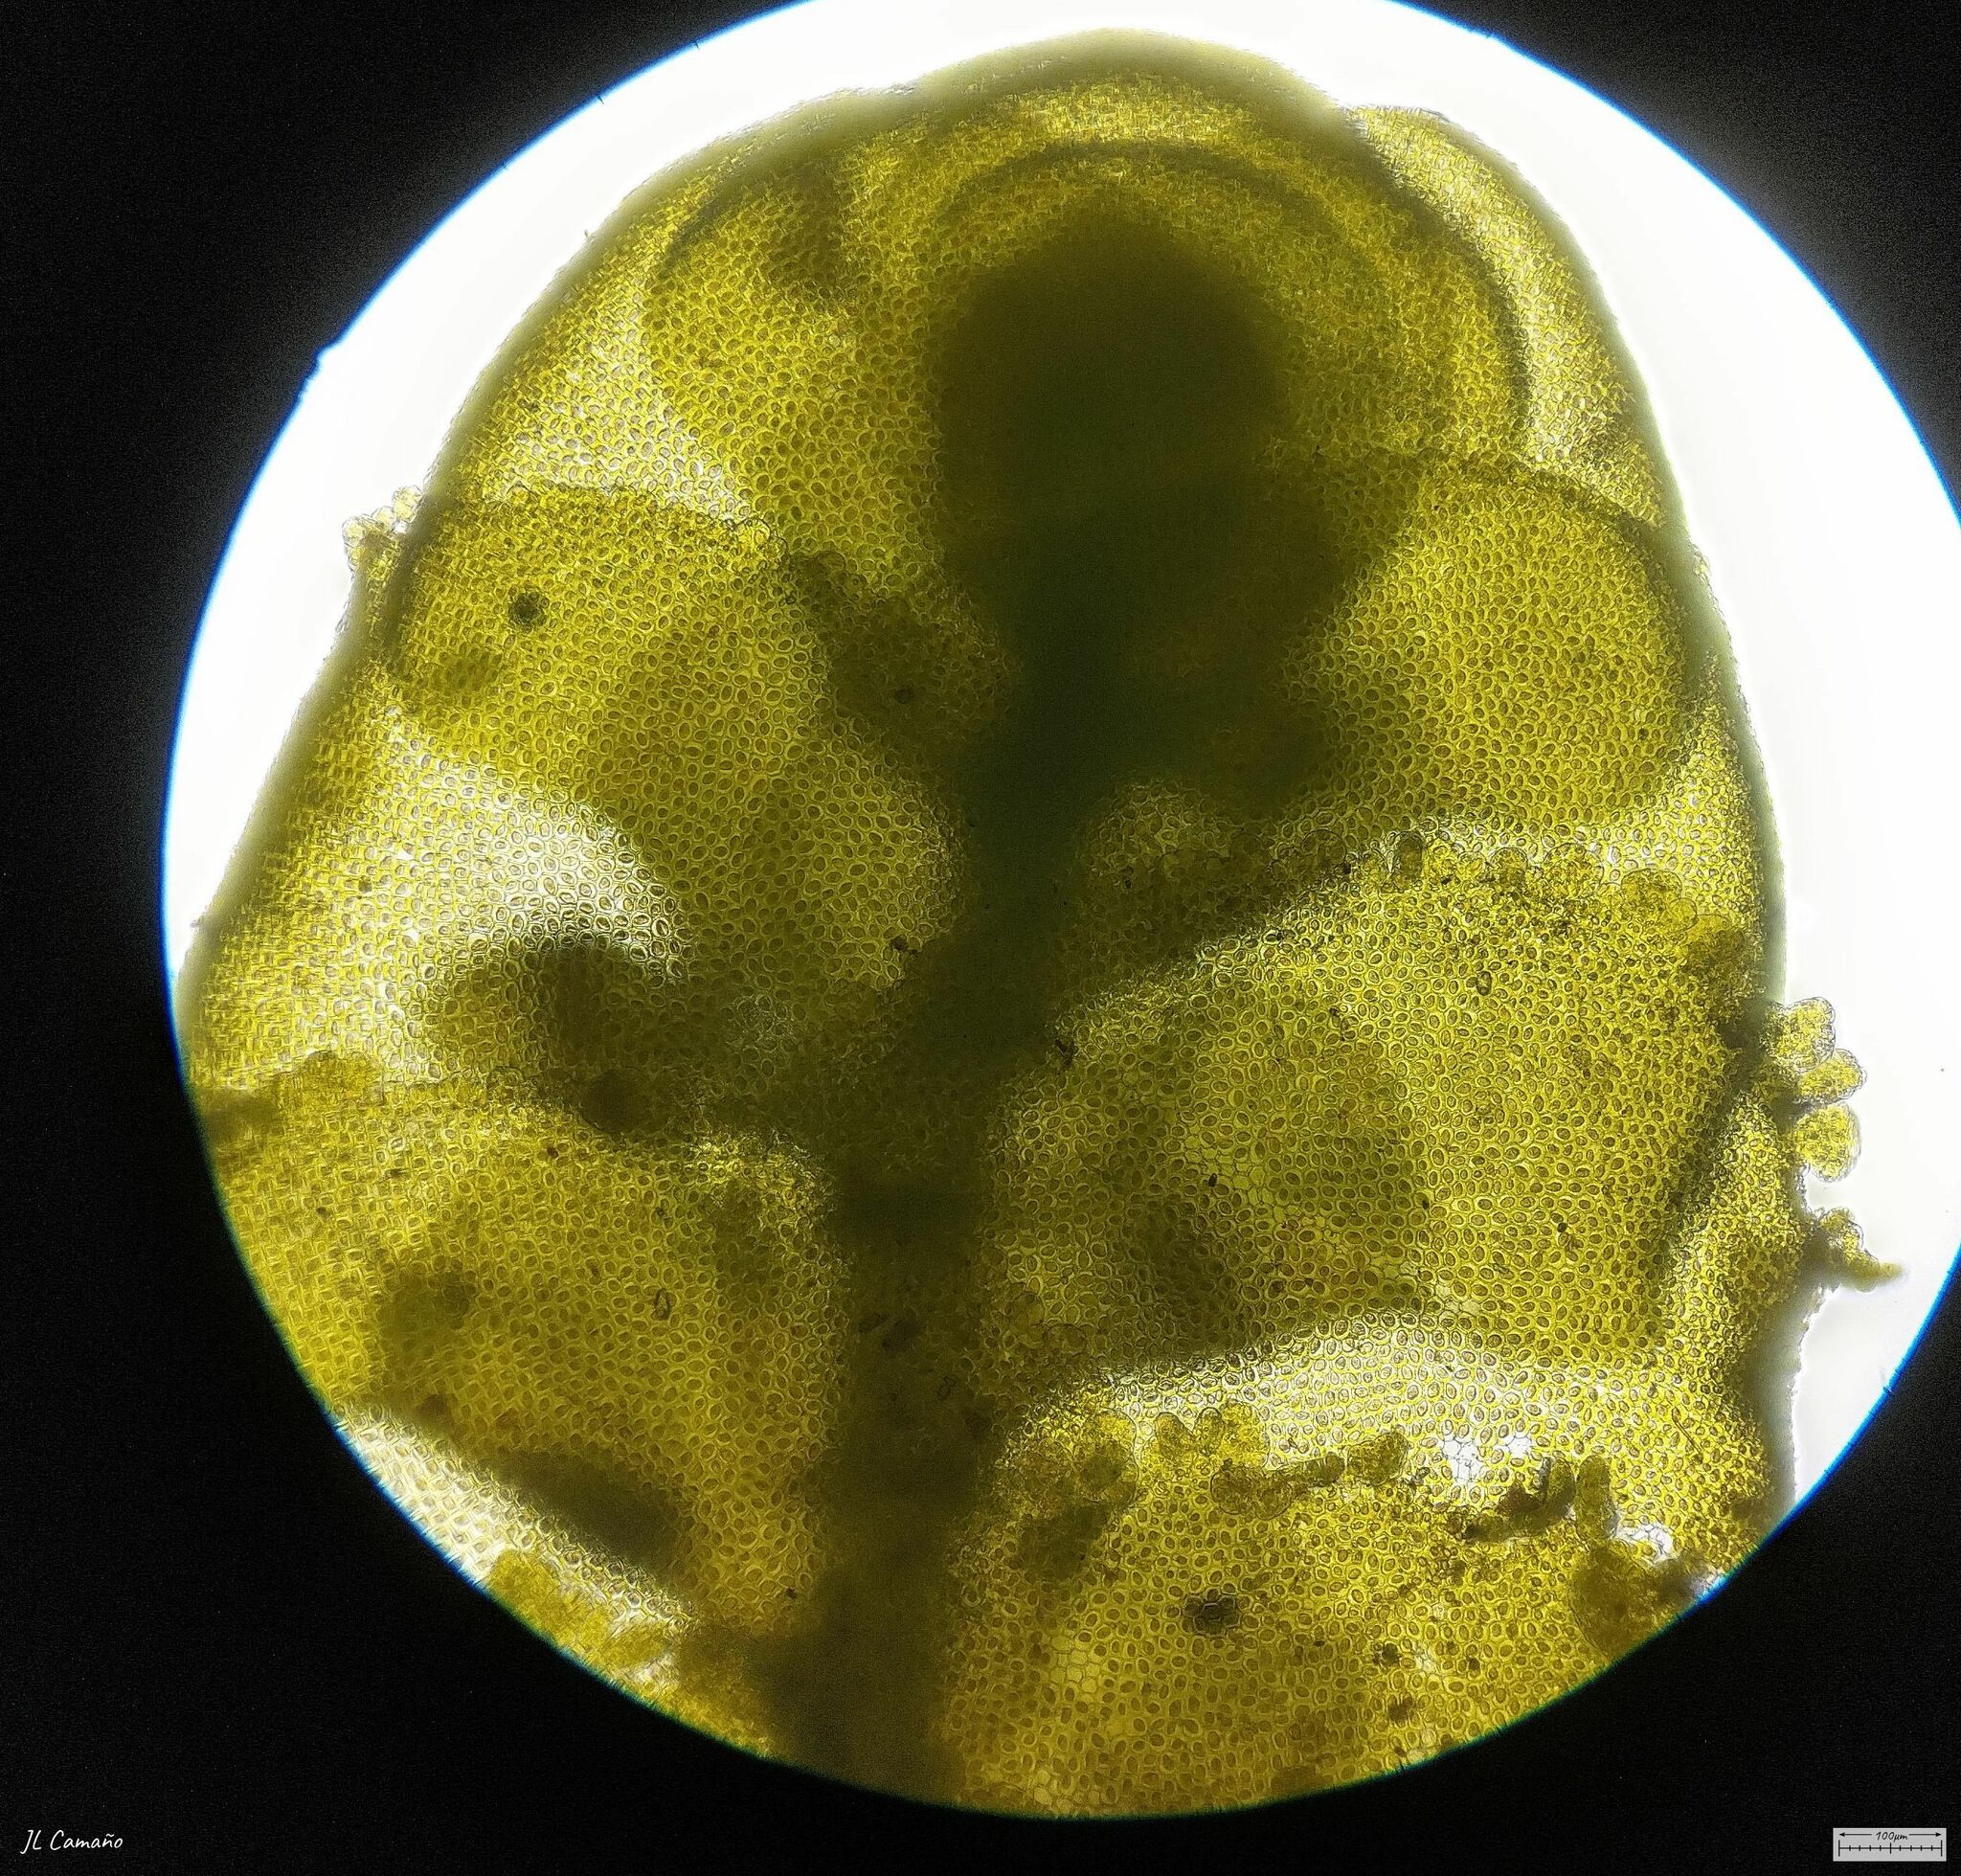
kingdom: Plantae
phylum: Marchantiophyta
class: Jungermanniopsida
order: Porellales
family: Radulaceae
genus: Radula
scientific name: Radula lindenbergiana
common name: Lindenberg's scalewort
